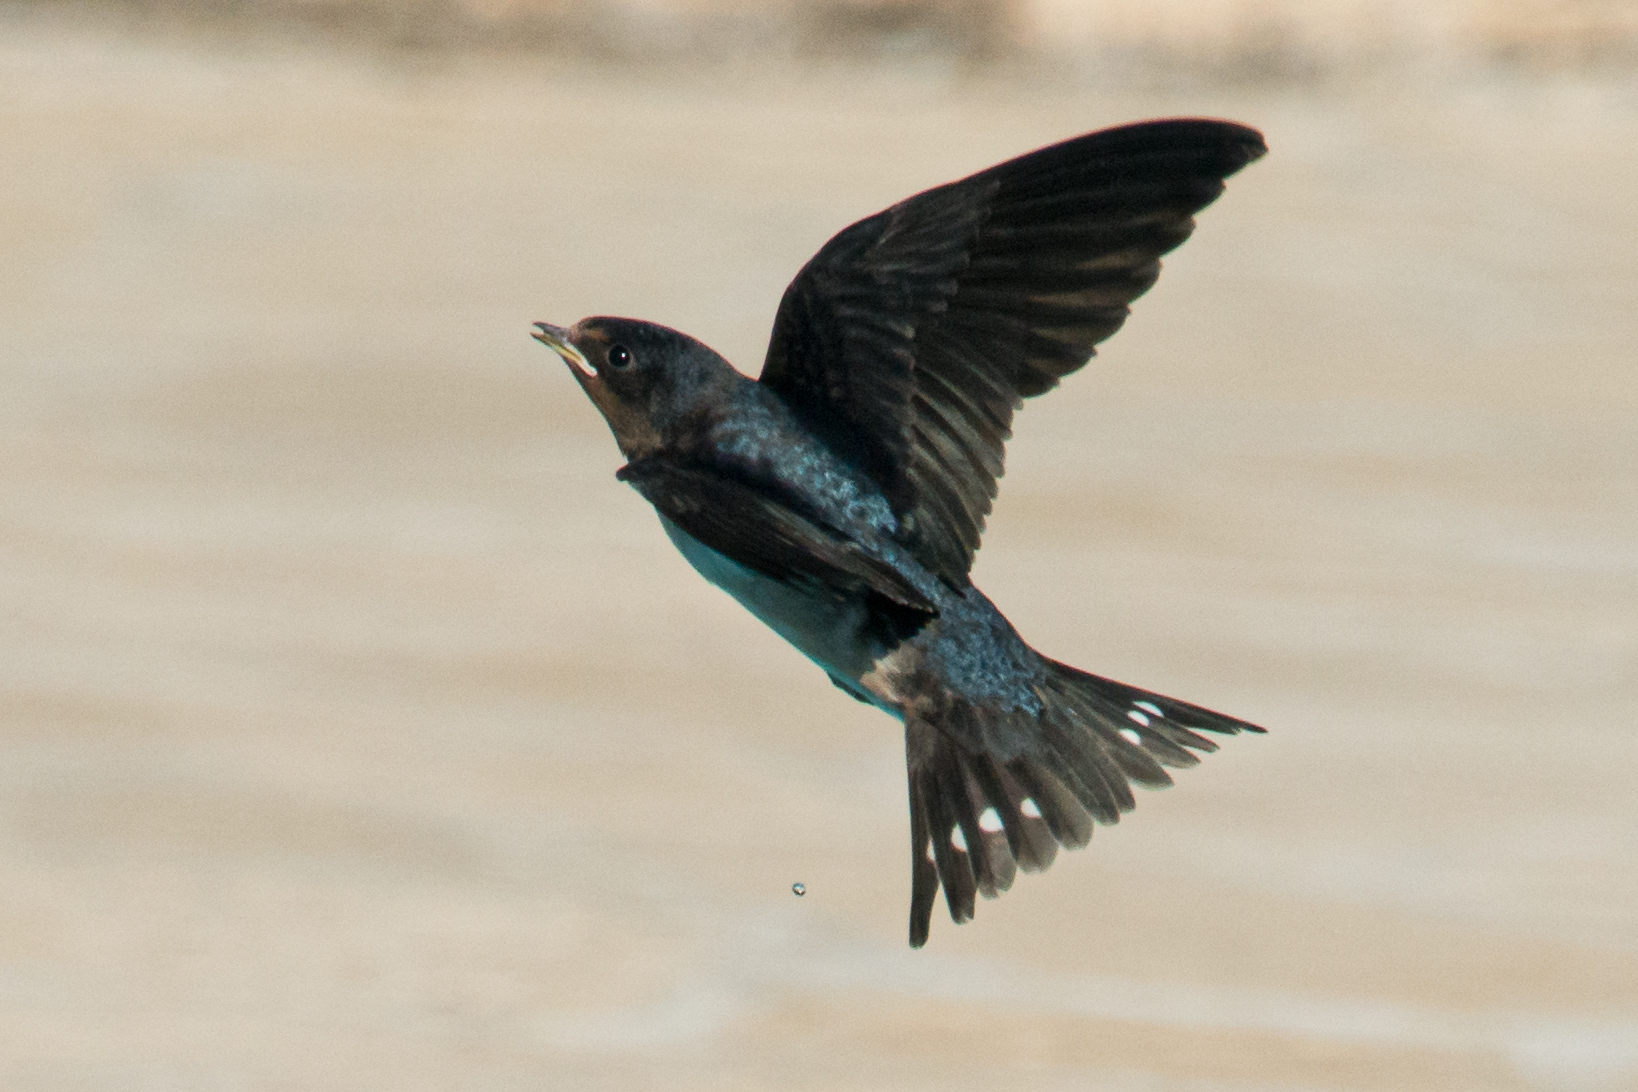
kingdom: Animalia
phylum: Chordata
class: Aves
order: Passeriformes
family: Hirundinidae
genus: Hirundo
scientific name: Hirundo rustica
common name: Barn swallow
